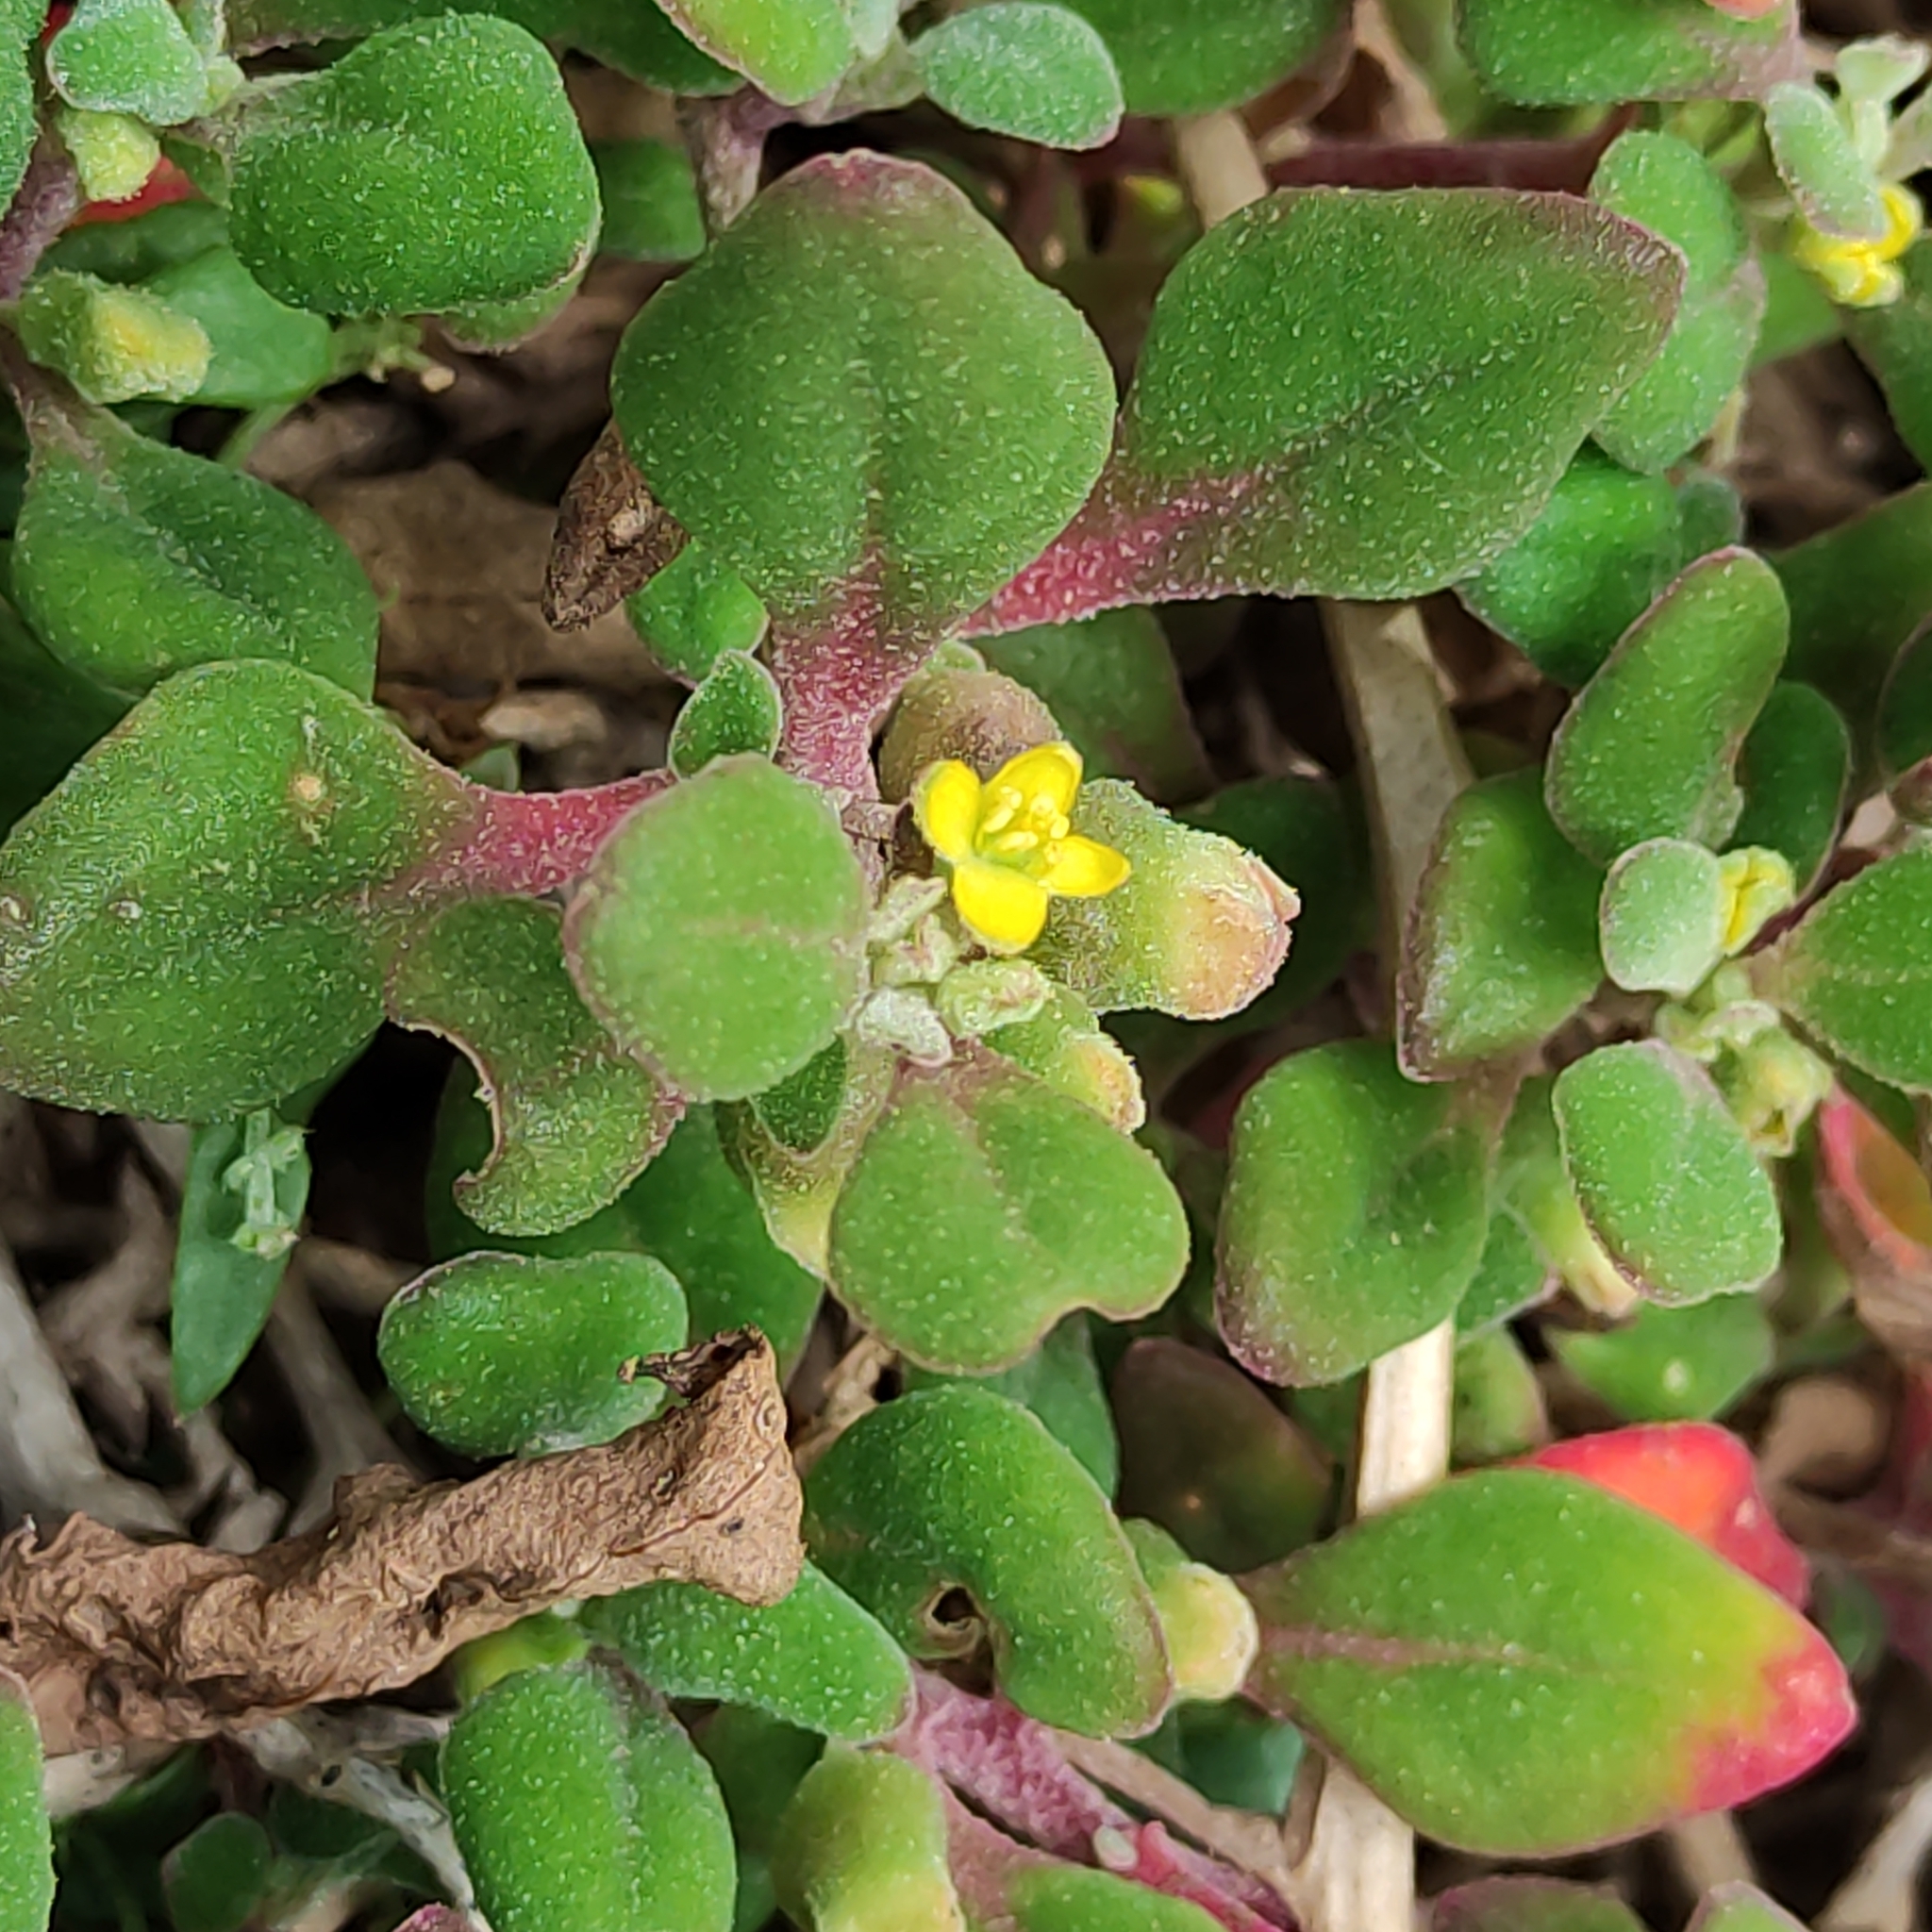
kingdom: Plantae
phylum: Tracheophyta
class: Magnoliopsida
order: Caryophyllales
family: Aizoaceae
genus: Tetragonia
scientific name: Tetragonia implexicoma
